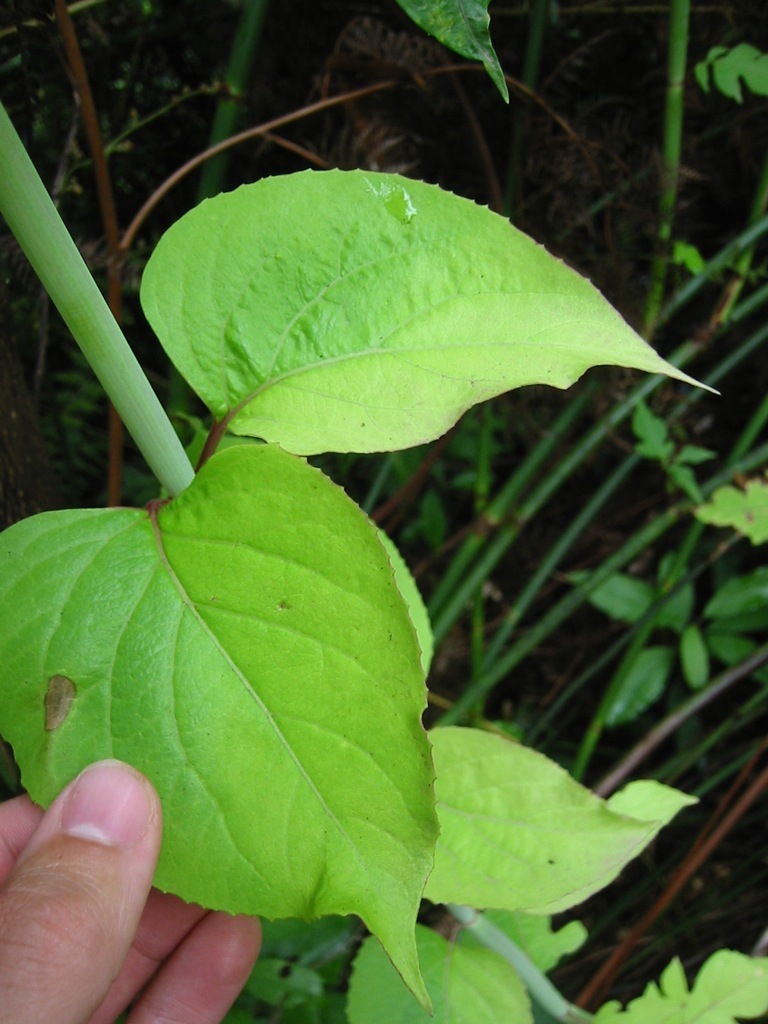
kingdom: Plantae
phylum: Tracheophyta
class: Magnoliopsida
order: Dipsacales
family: Caprifoliaceae
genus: Leycesteria
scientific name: Leycesteria formosa
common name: Himalayan honeysuckle
